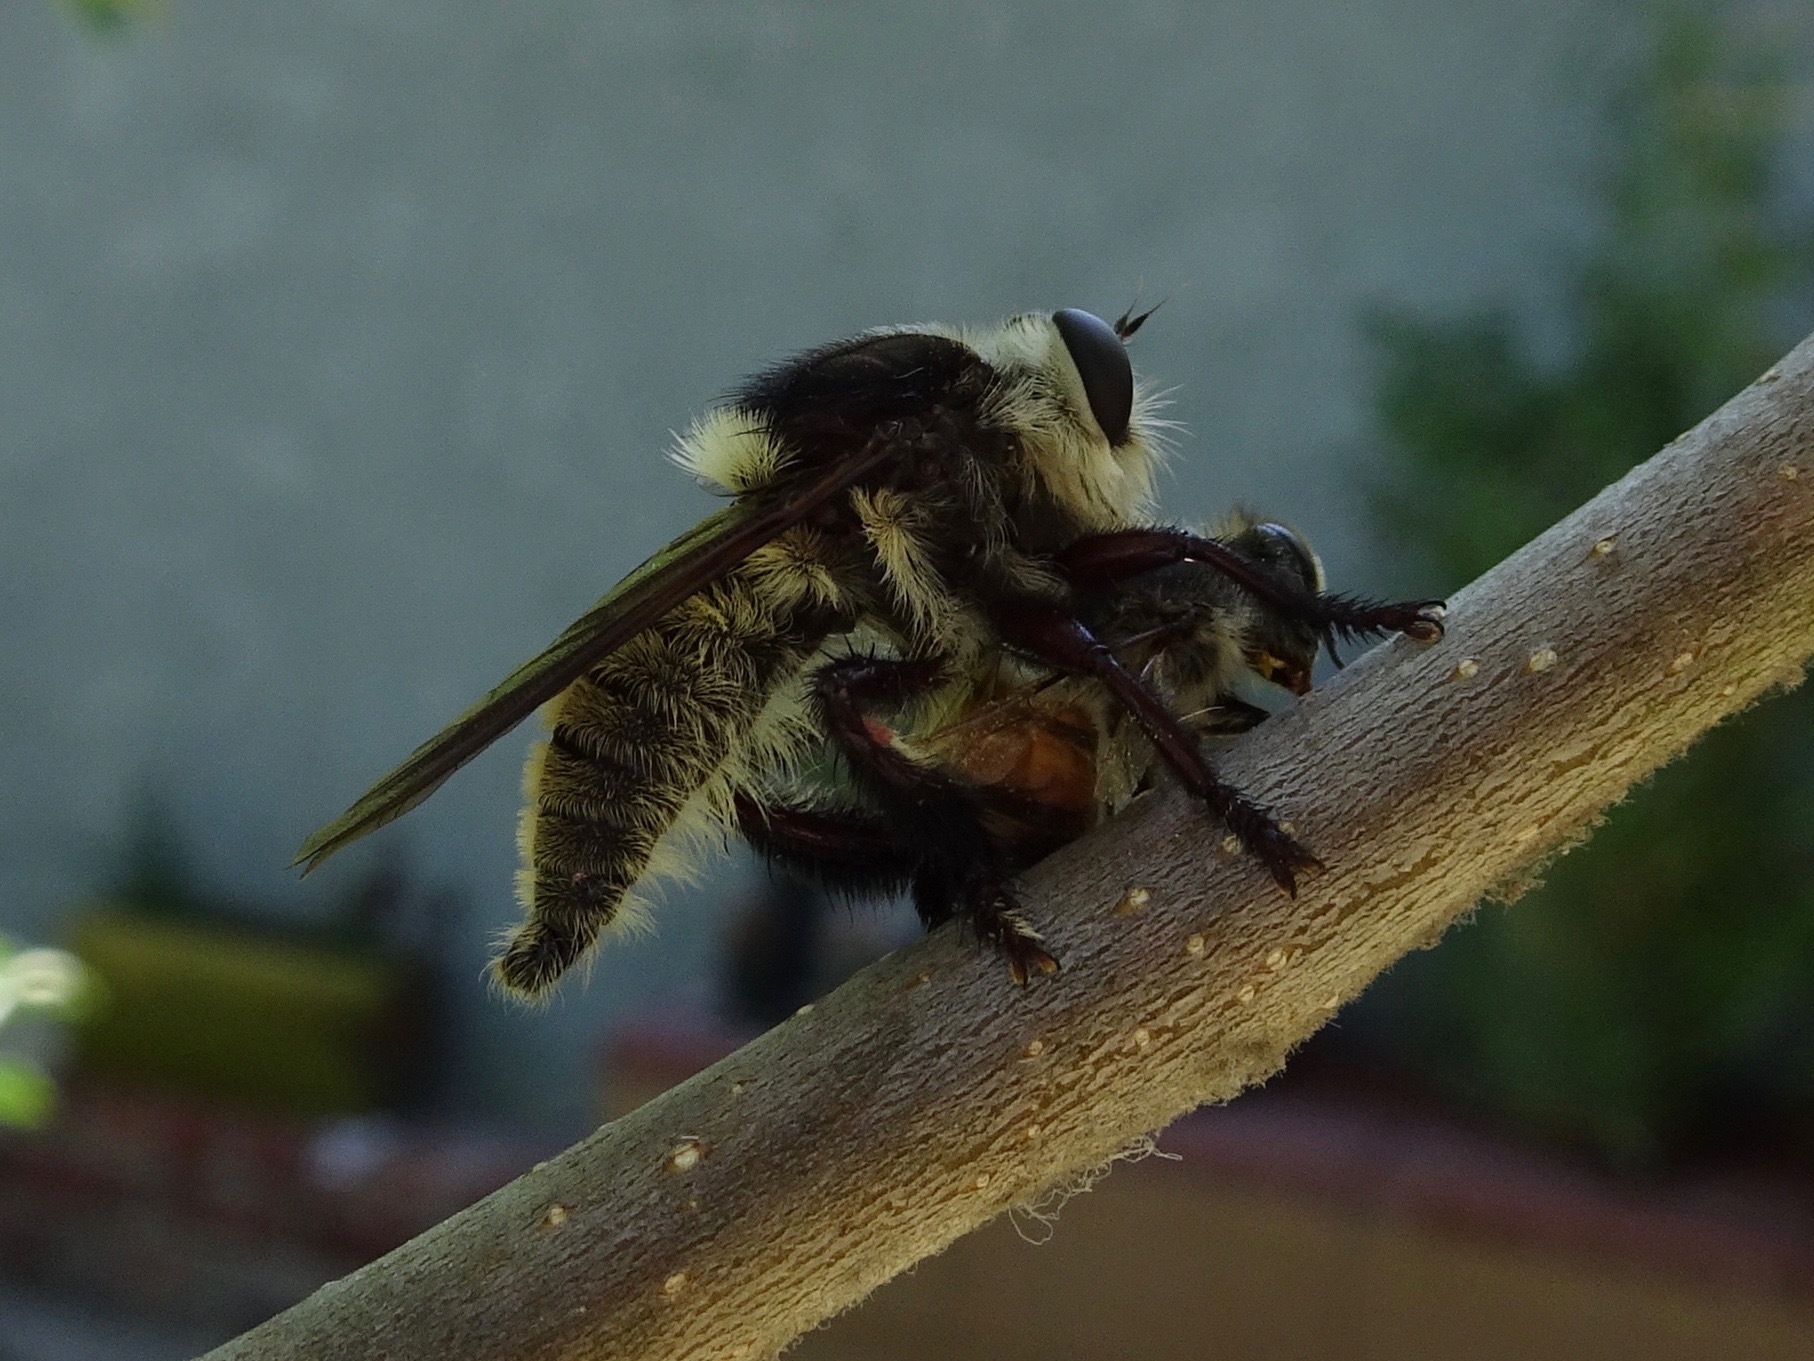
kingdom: Animalia
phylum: Arthropoda
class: Insecta
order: Diptera
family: Asilidae
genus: Mallophora
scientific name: Mallophora fautrix
